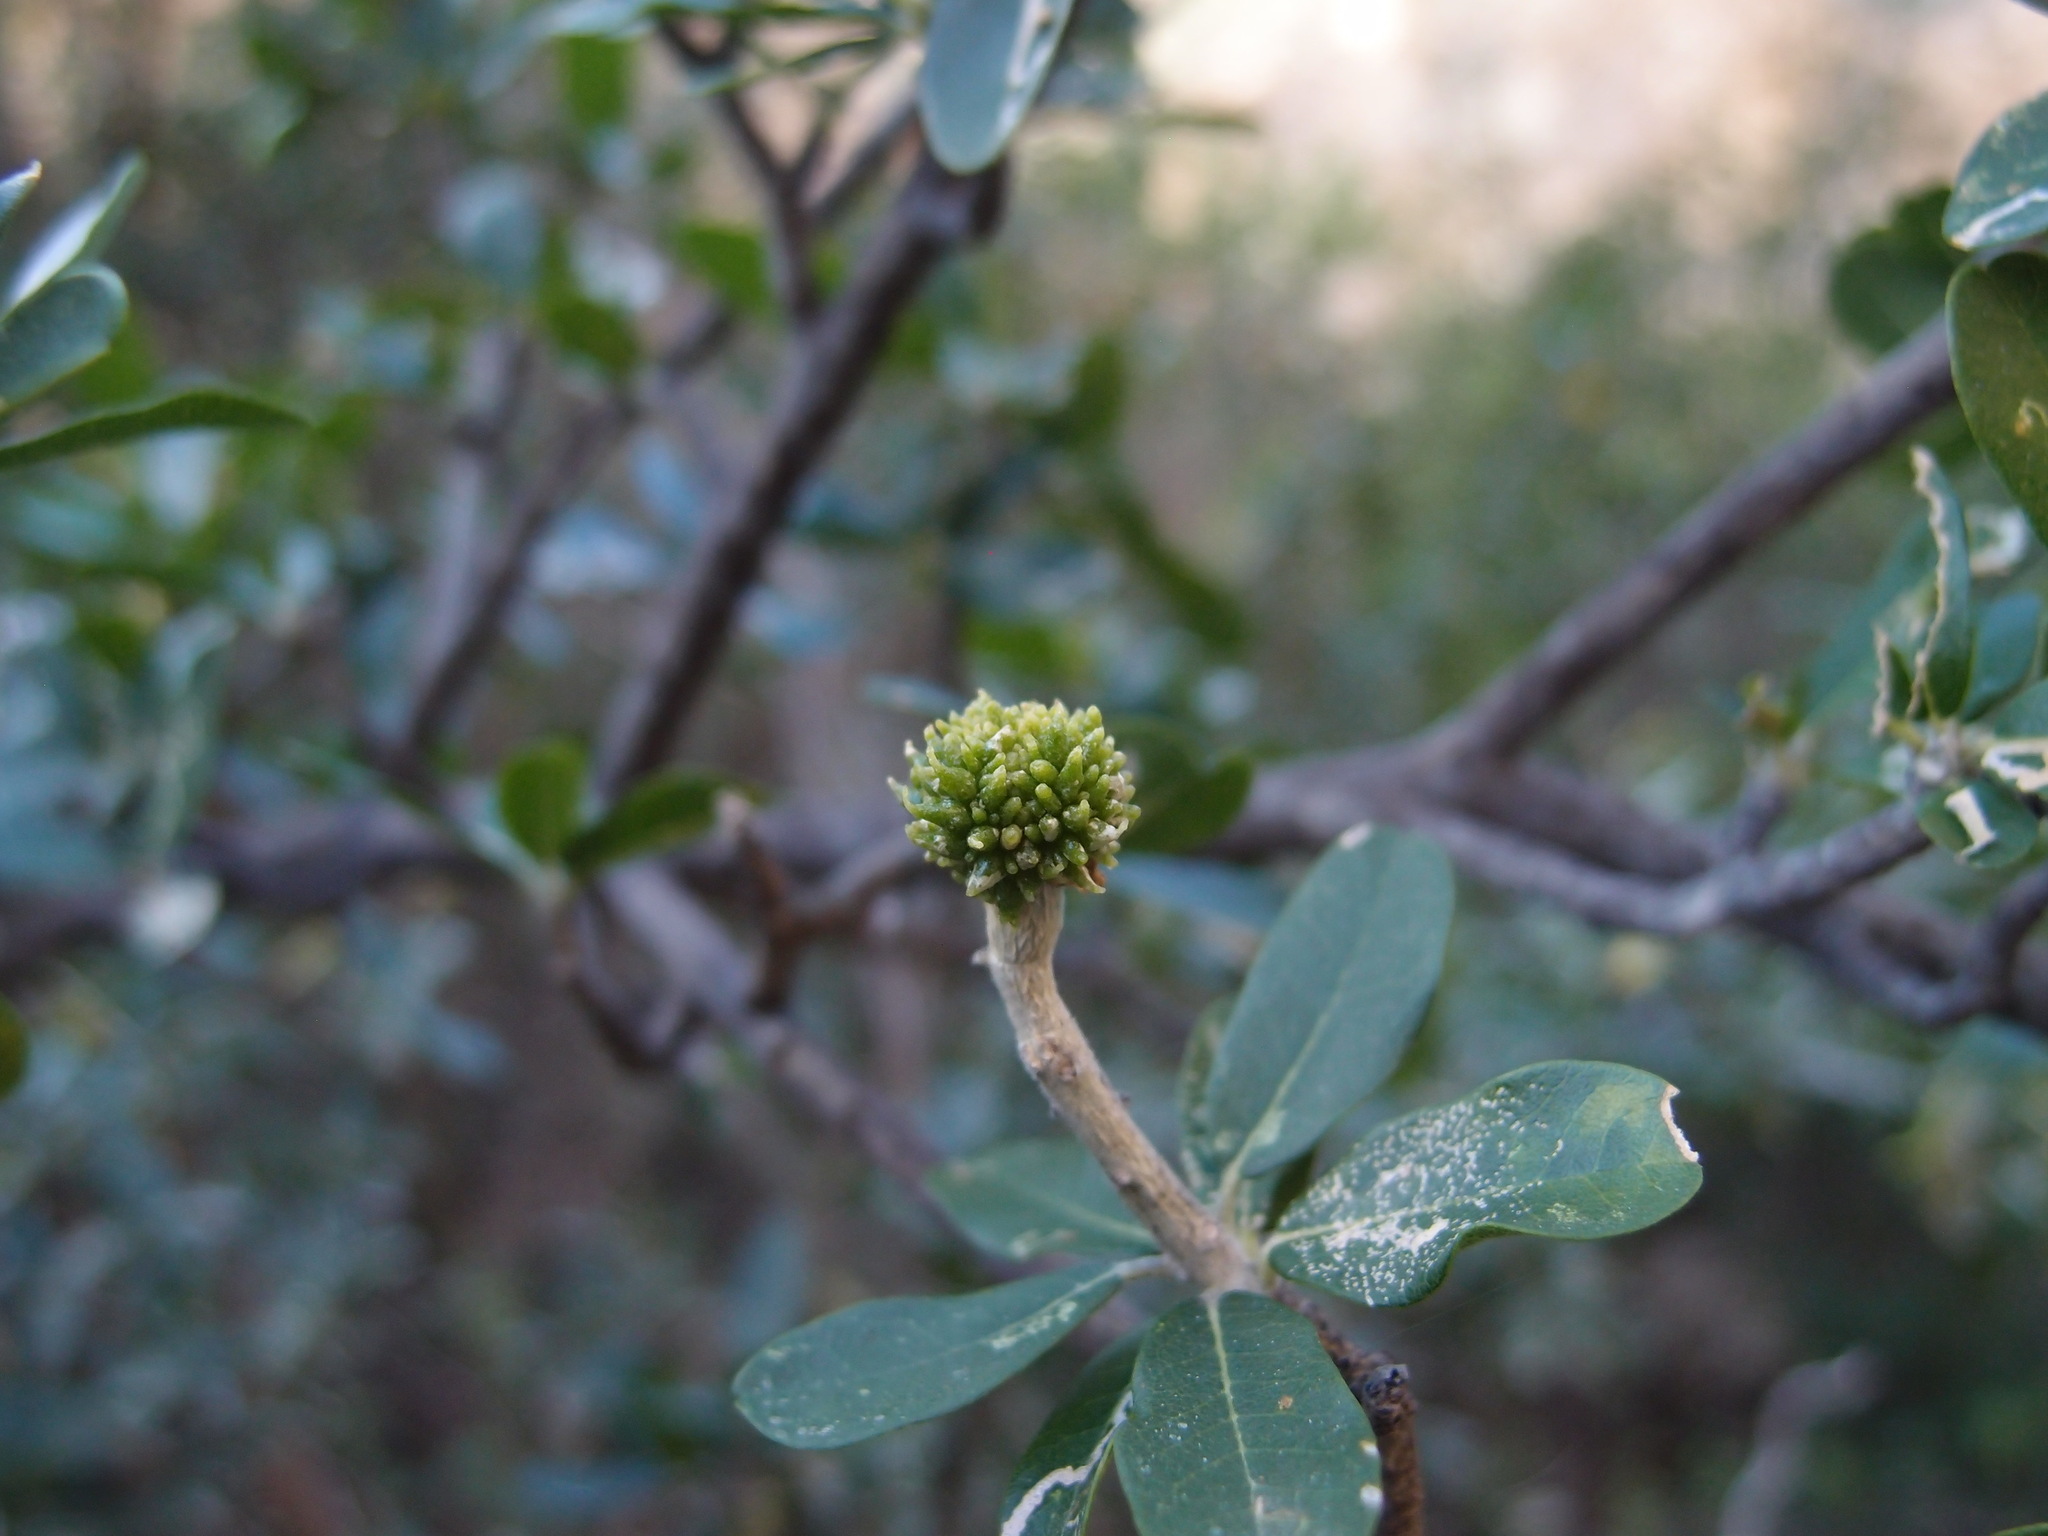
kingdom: Plantae
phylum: Tracheophyta
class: Magnoliopsida
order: Sapindales
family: Rutaceae
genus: Esenbeckia
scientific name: Esenbeckia hartmanii
